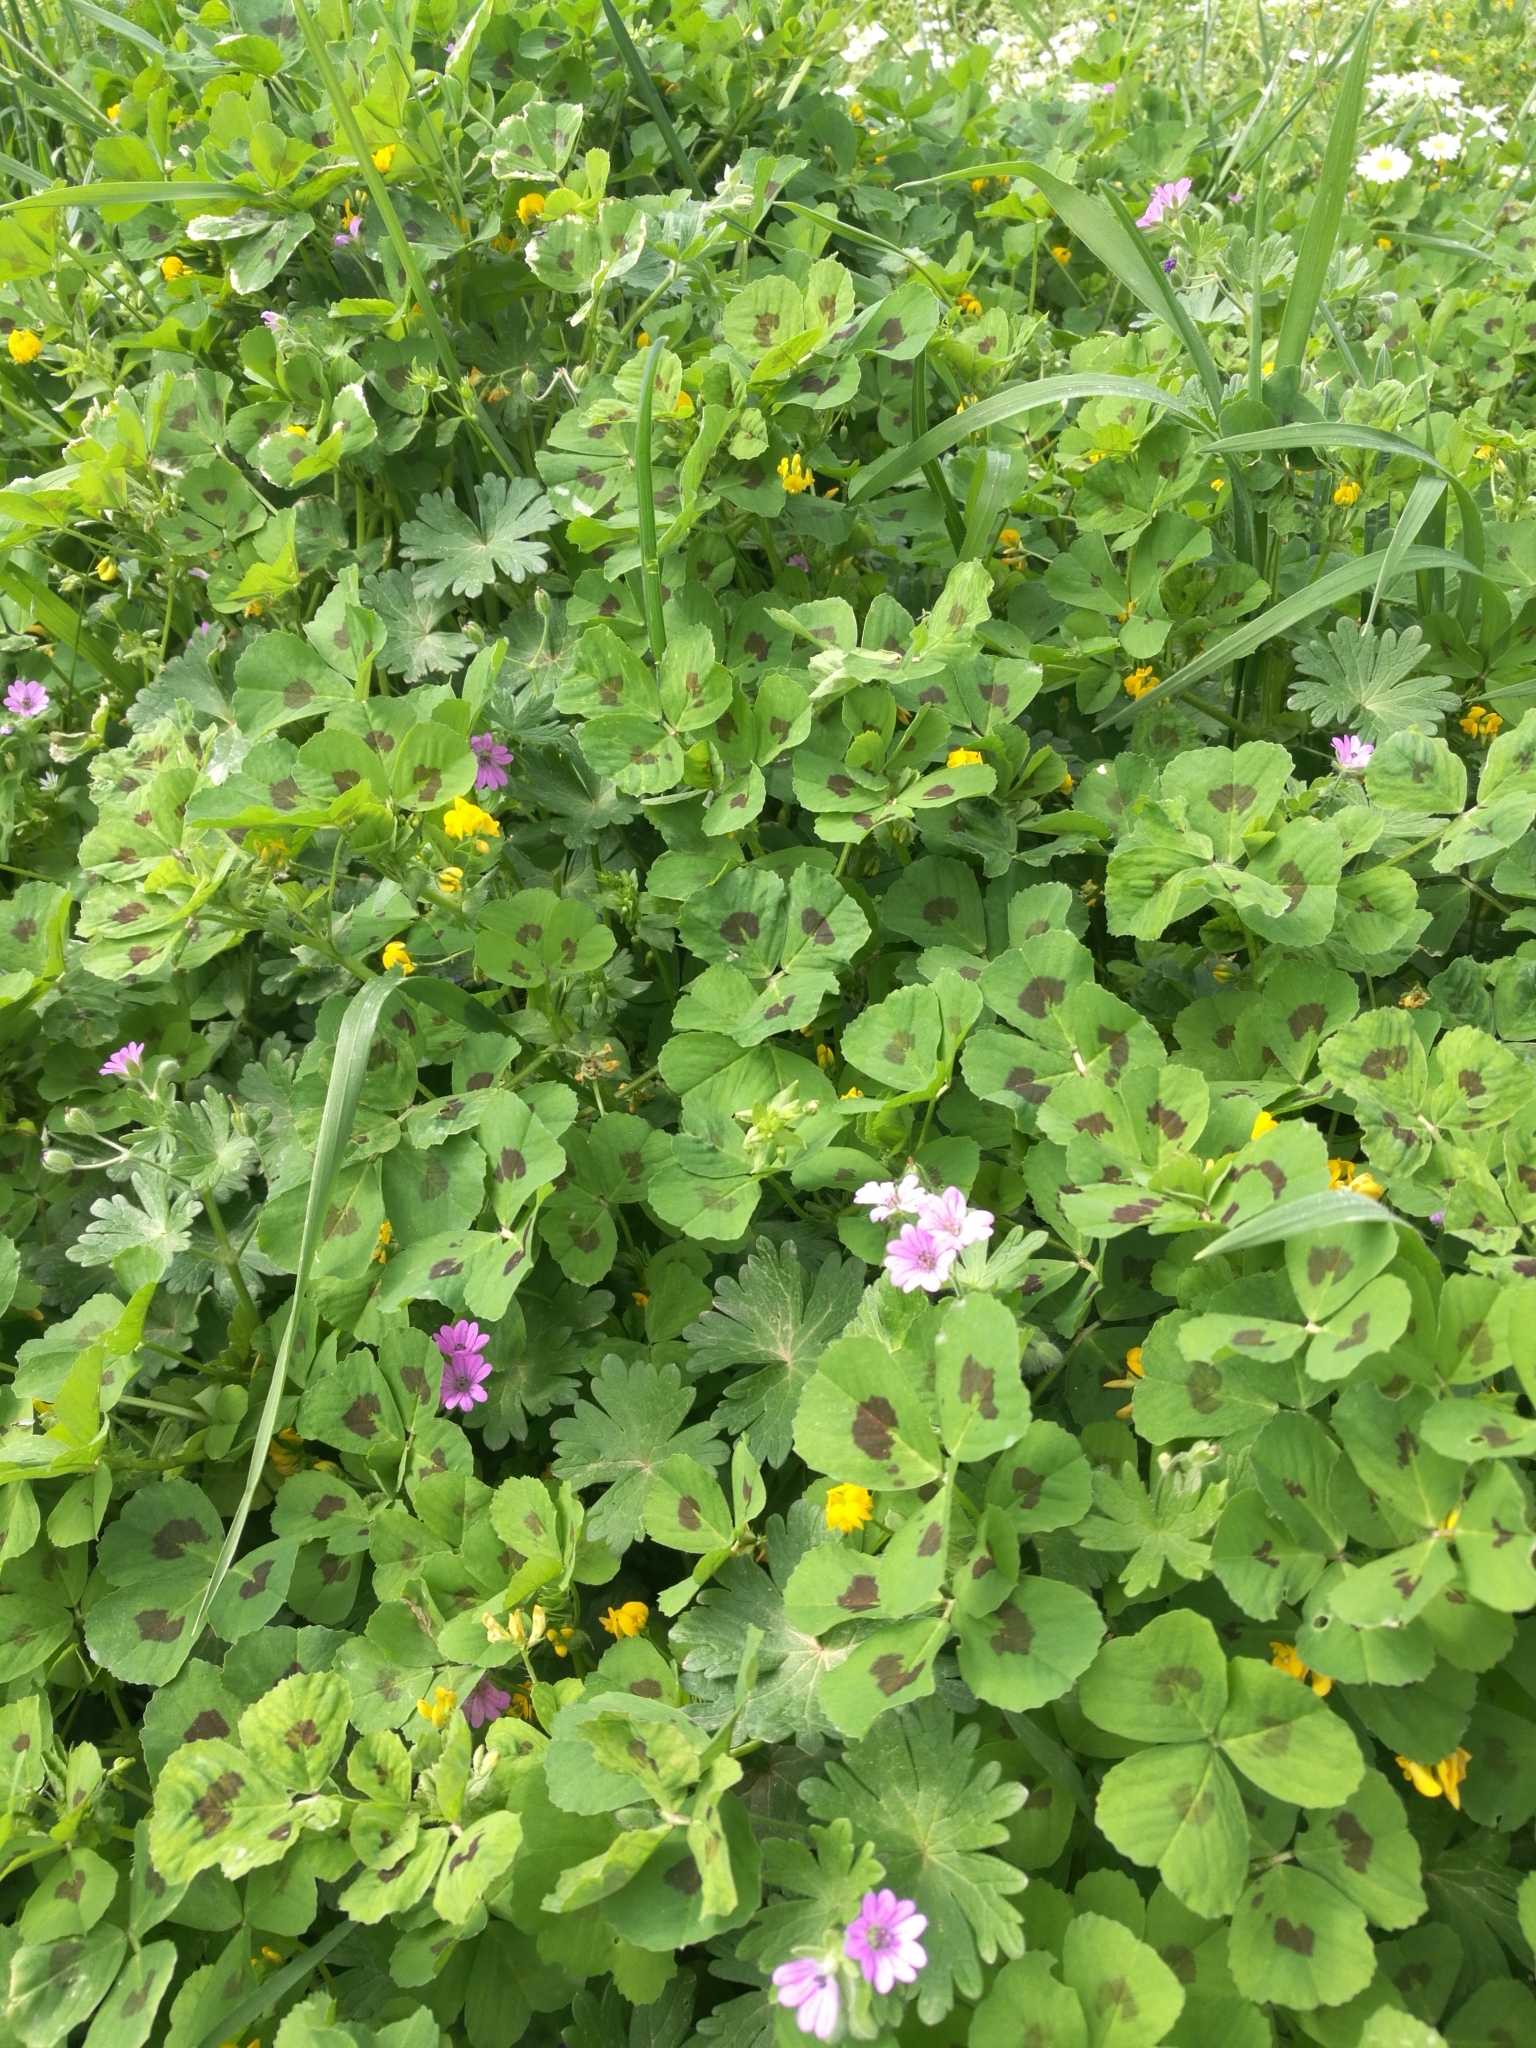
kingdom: Plantae
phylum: Tracheophyta
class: Magnoliopsida
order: Fabales
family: Fabaceae
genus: Medicago
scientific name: Medicago arabica
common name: Spotted medick
